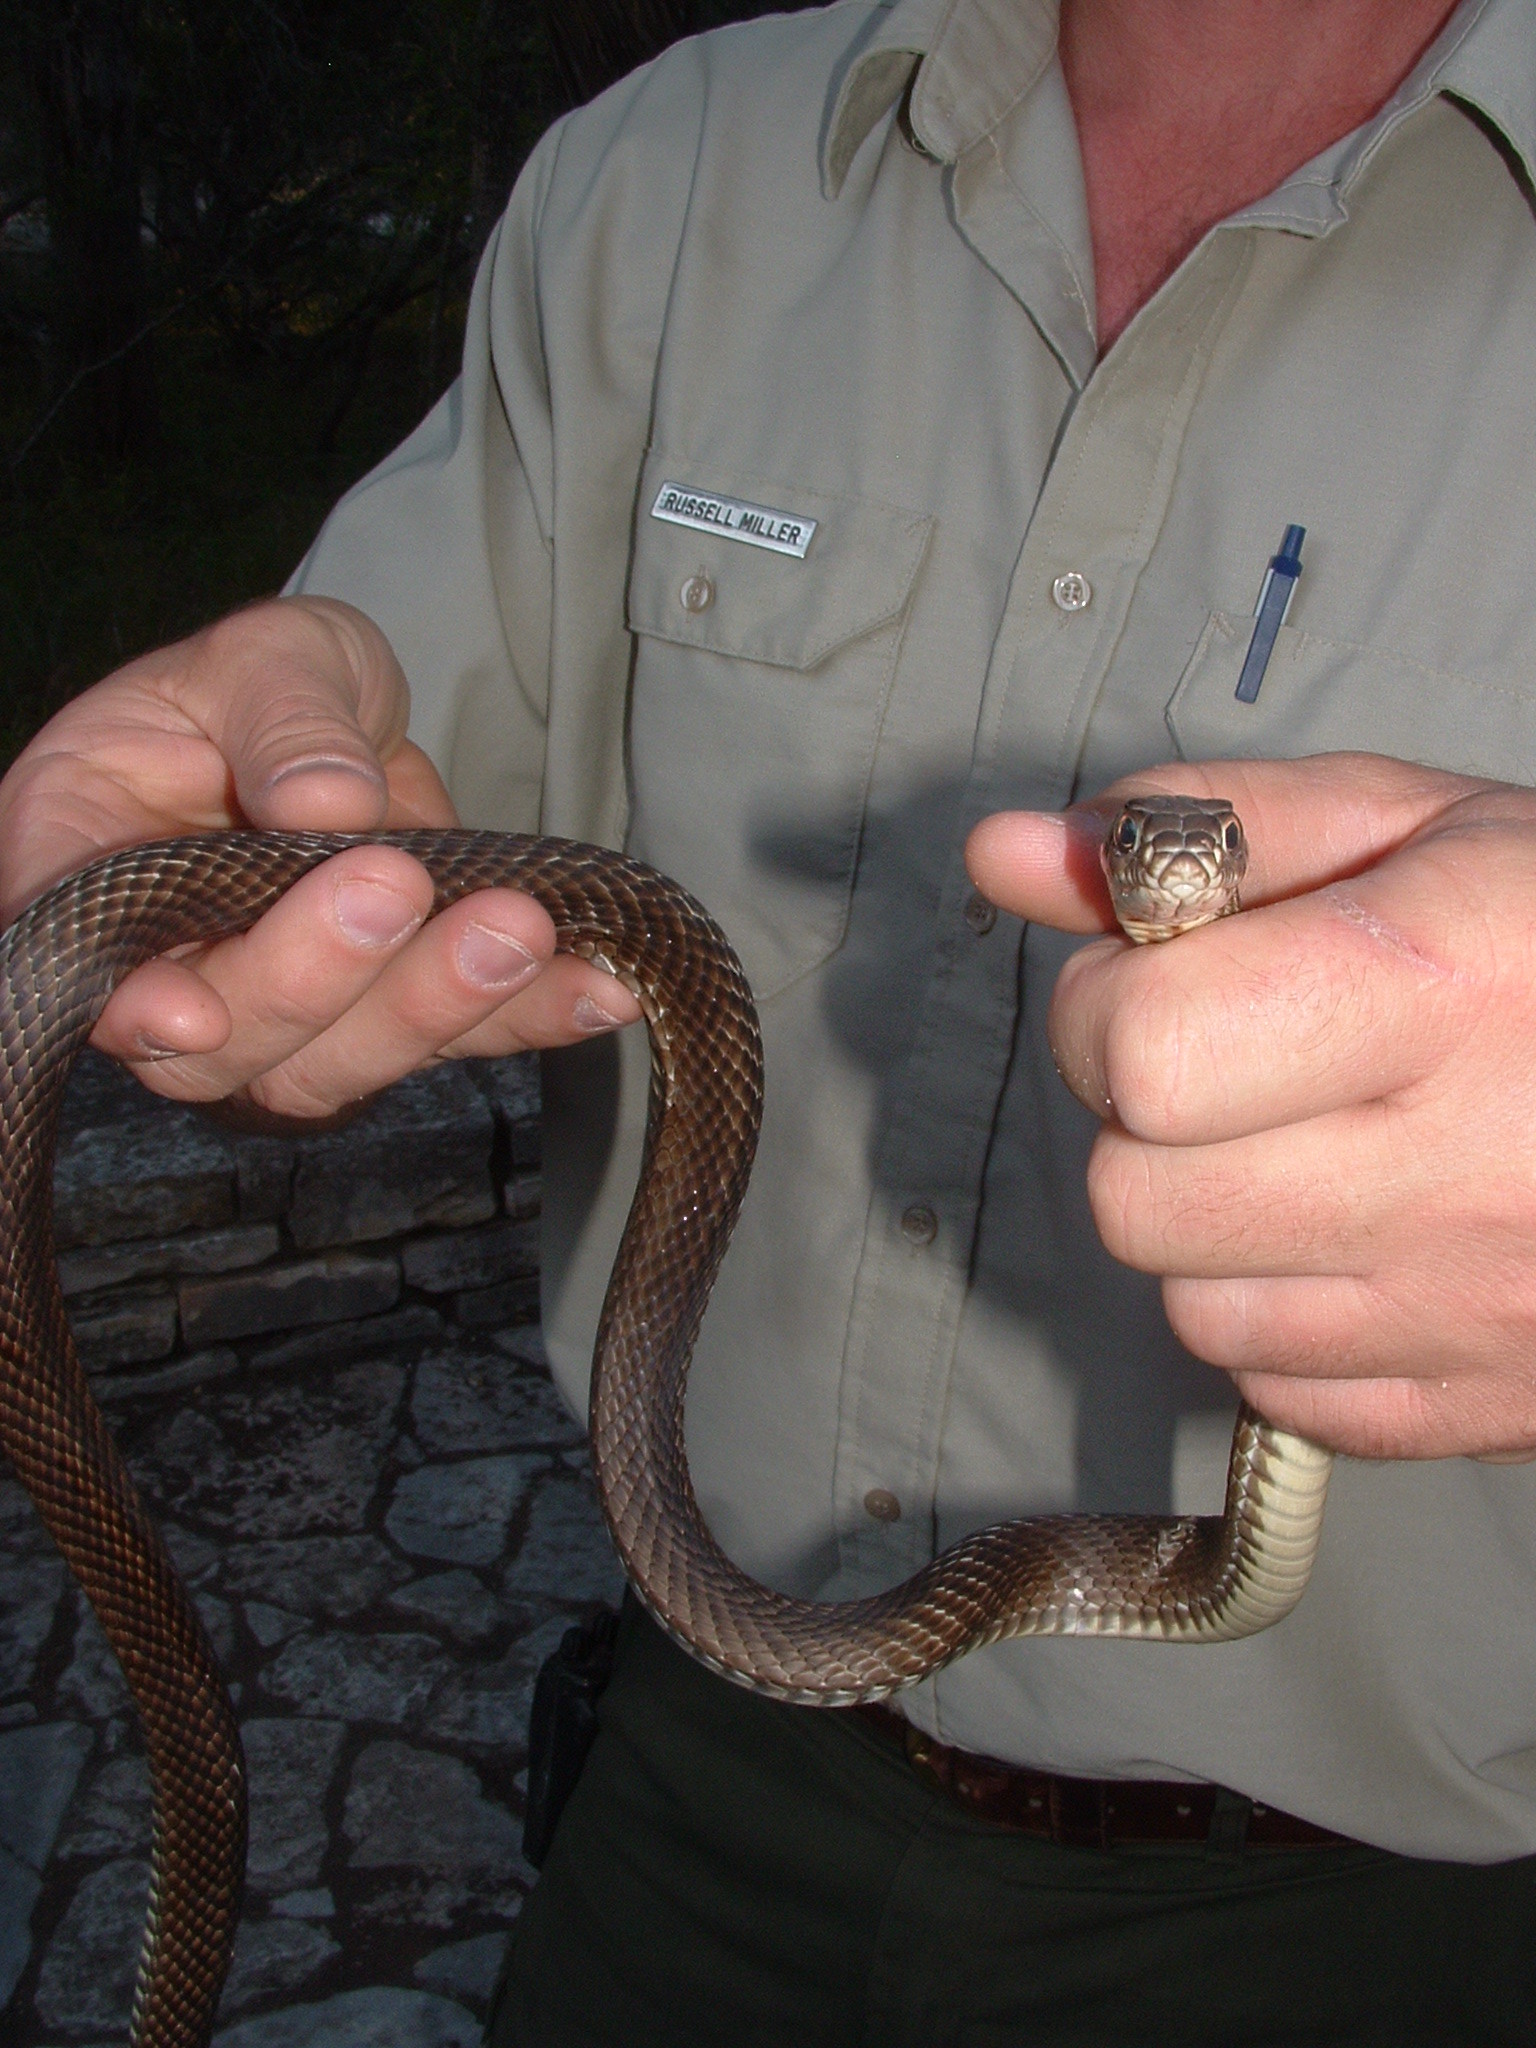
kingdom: Animalia
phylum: Chordata
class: Squamata
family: Colubridae
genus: Masticophis
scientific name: Masticophis flagellum
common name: Coachwhip
